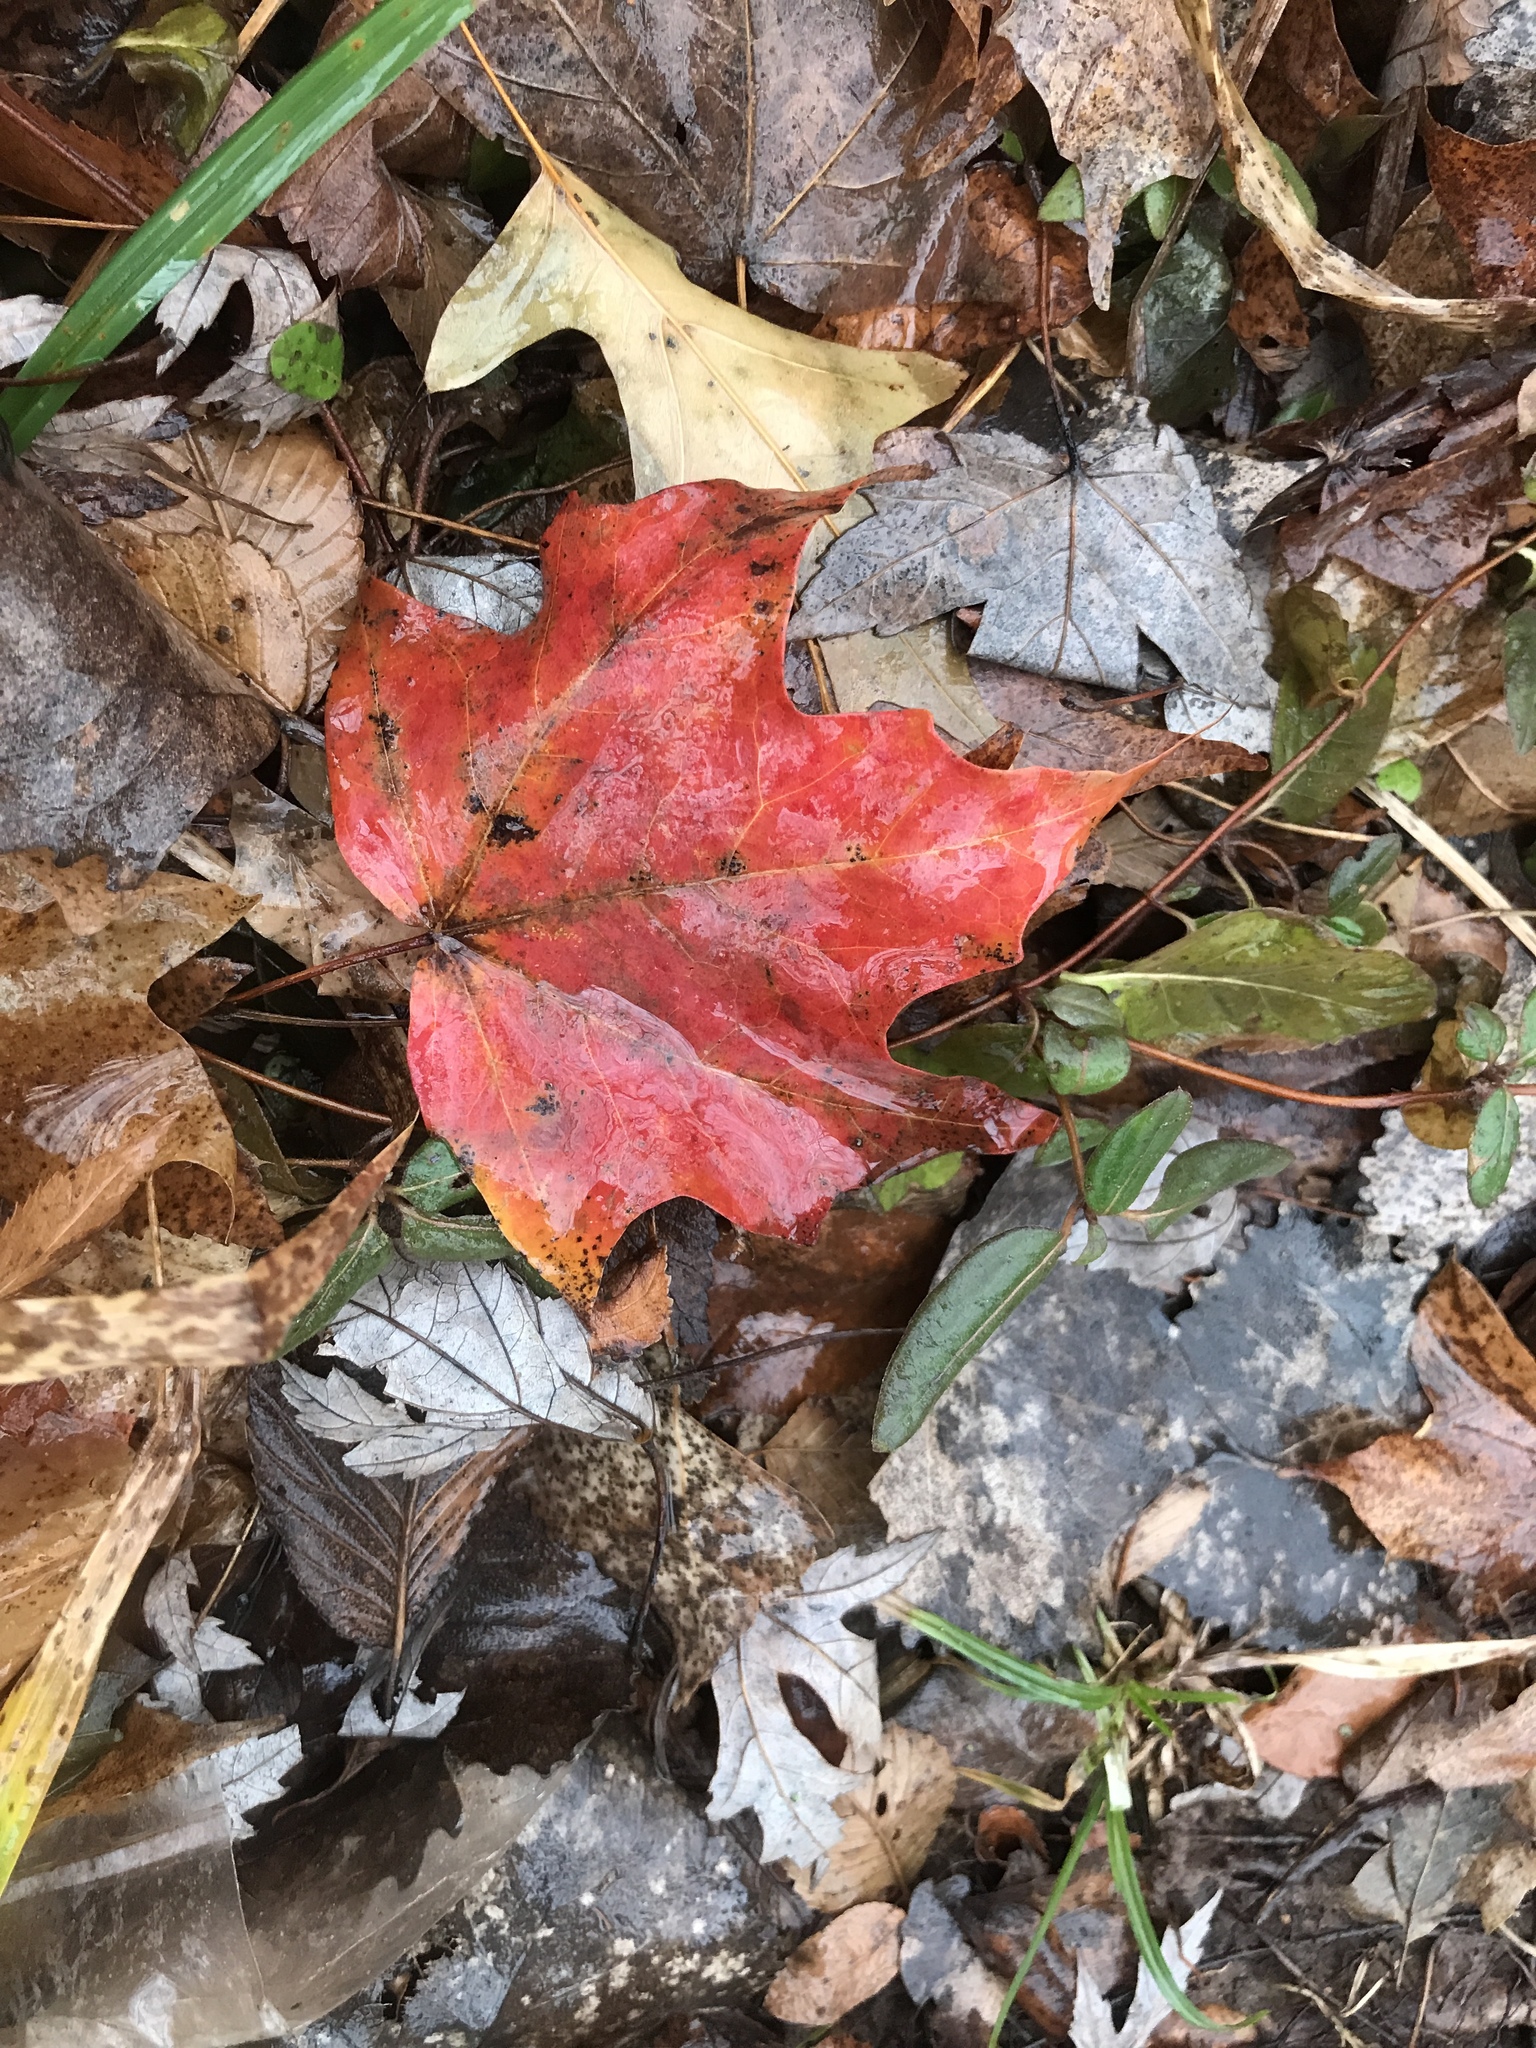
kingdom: Plantae
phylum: Tracheophyta
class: Magnoliopsida
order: Sapindales
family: Sapindaceae
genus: Acer
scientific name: Acer saccharum
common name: Sugar maple
